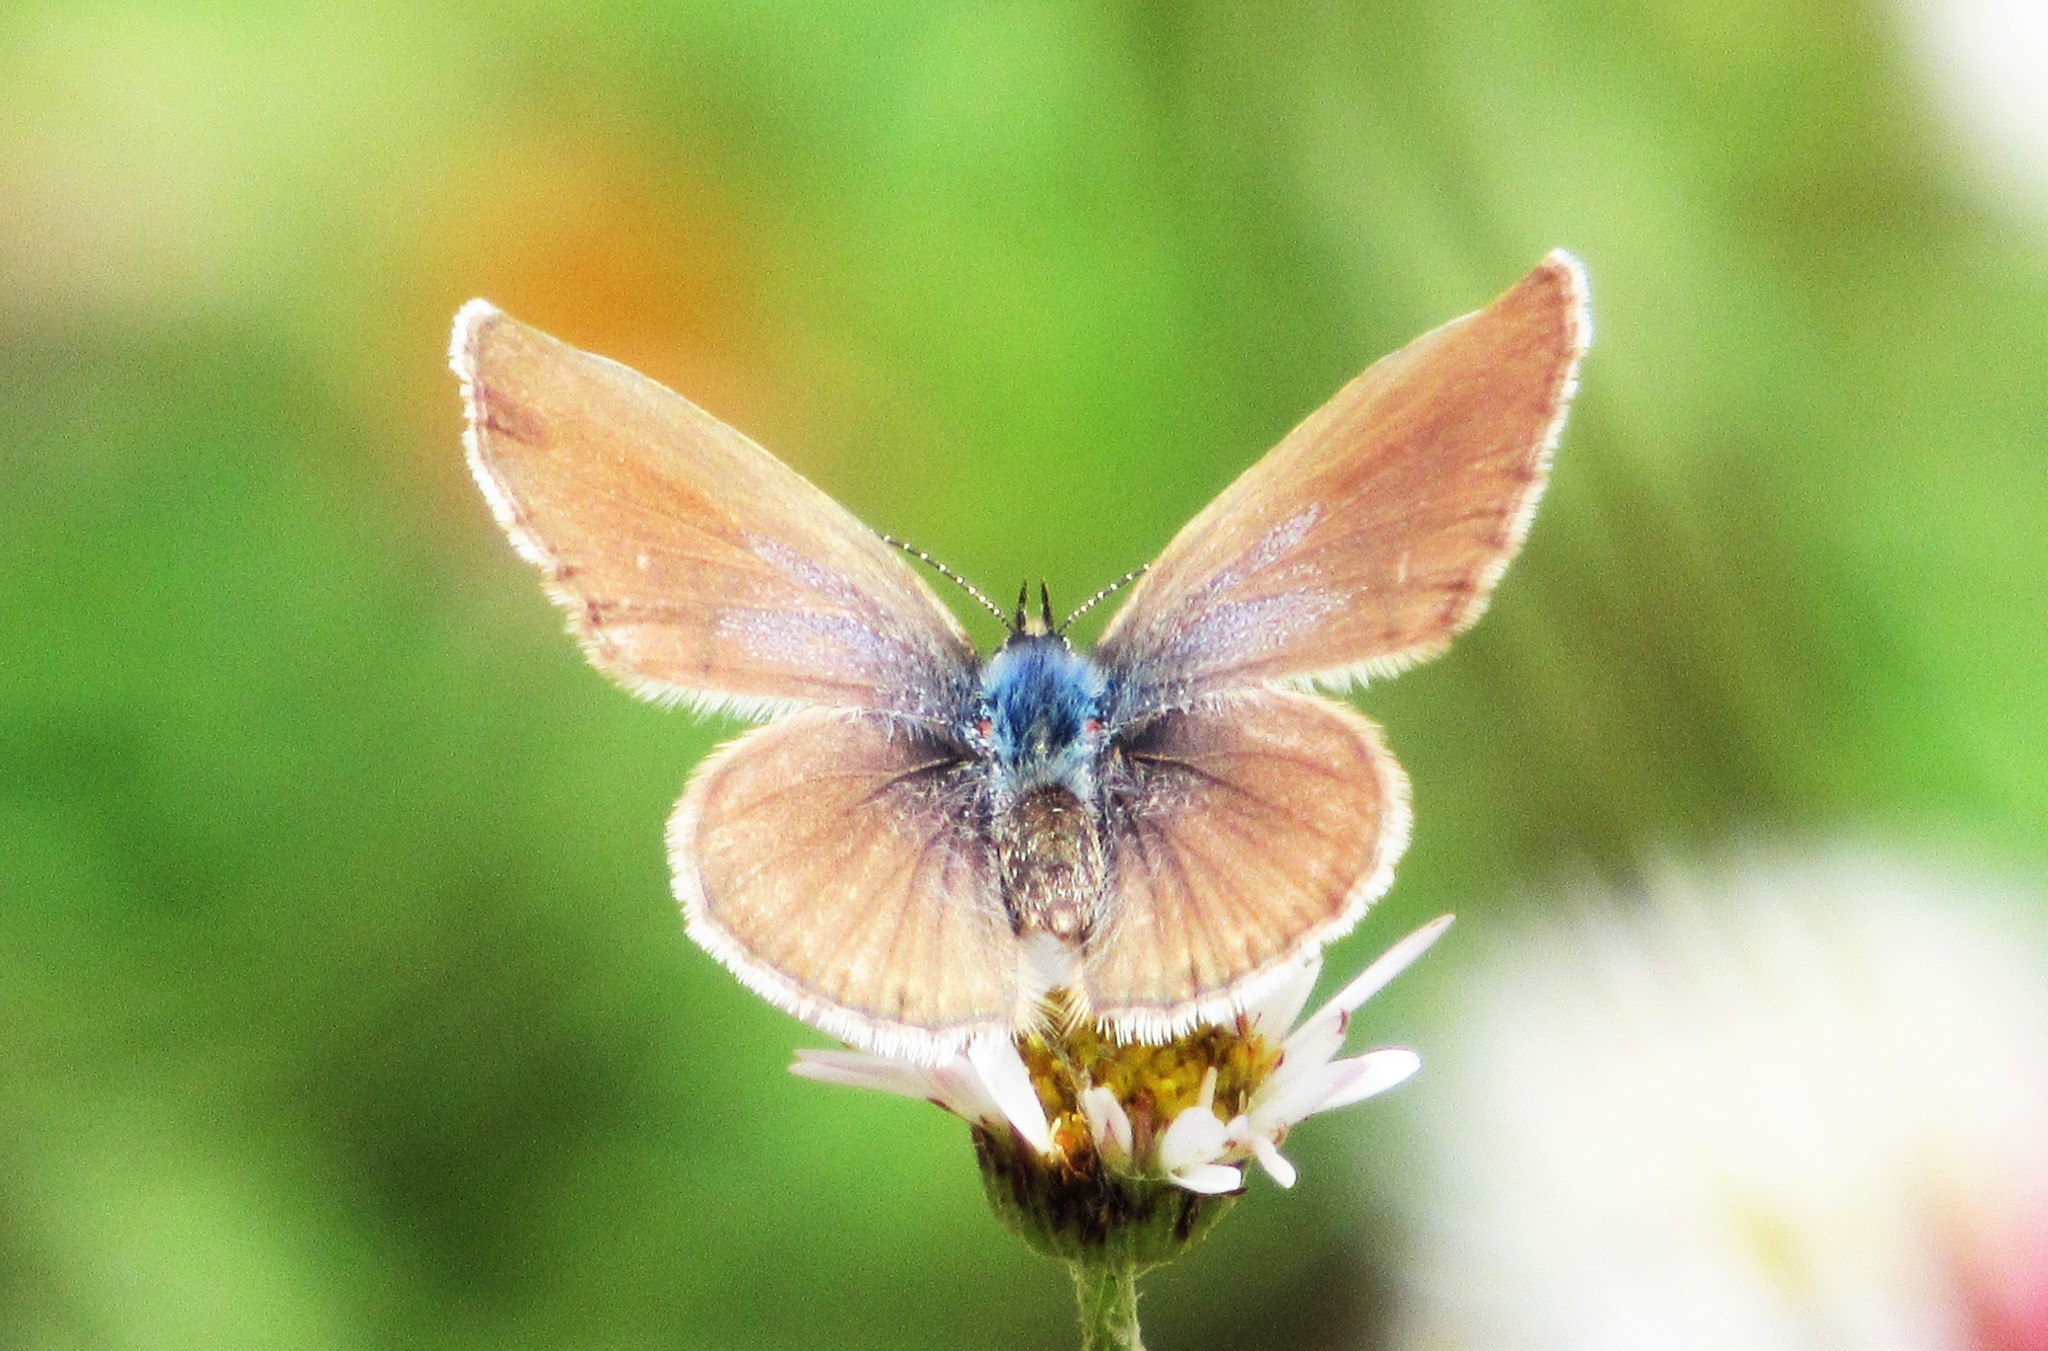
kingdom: Animalia
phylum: Arthropoda
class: Insecta
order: Lepidoptera
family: Lycaenidae
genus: Hemiargus
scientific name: Hemiargus hanno
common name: Common blue
